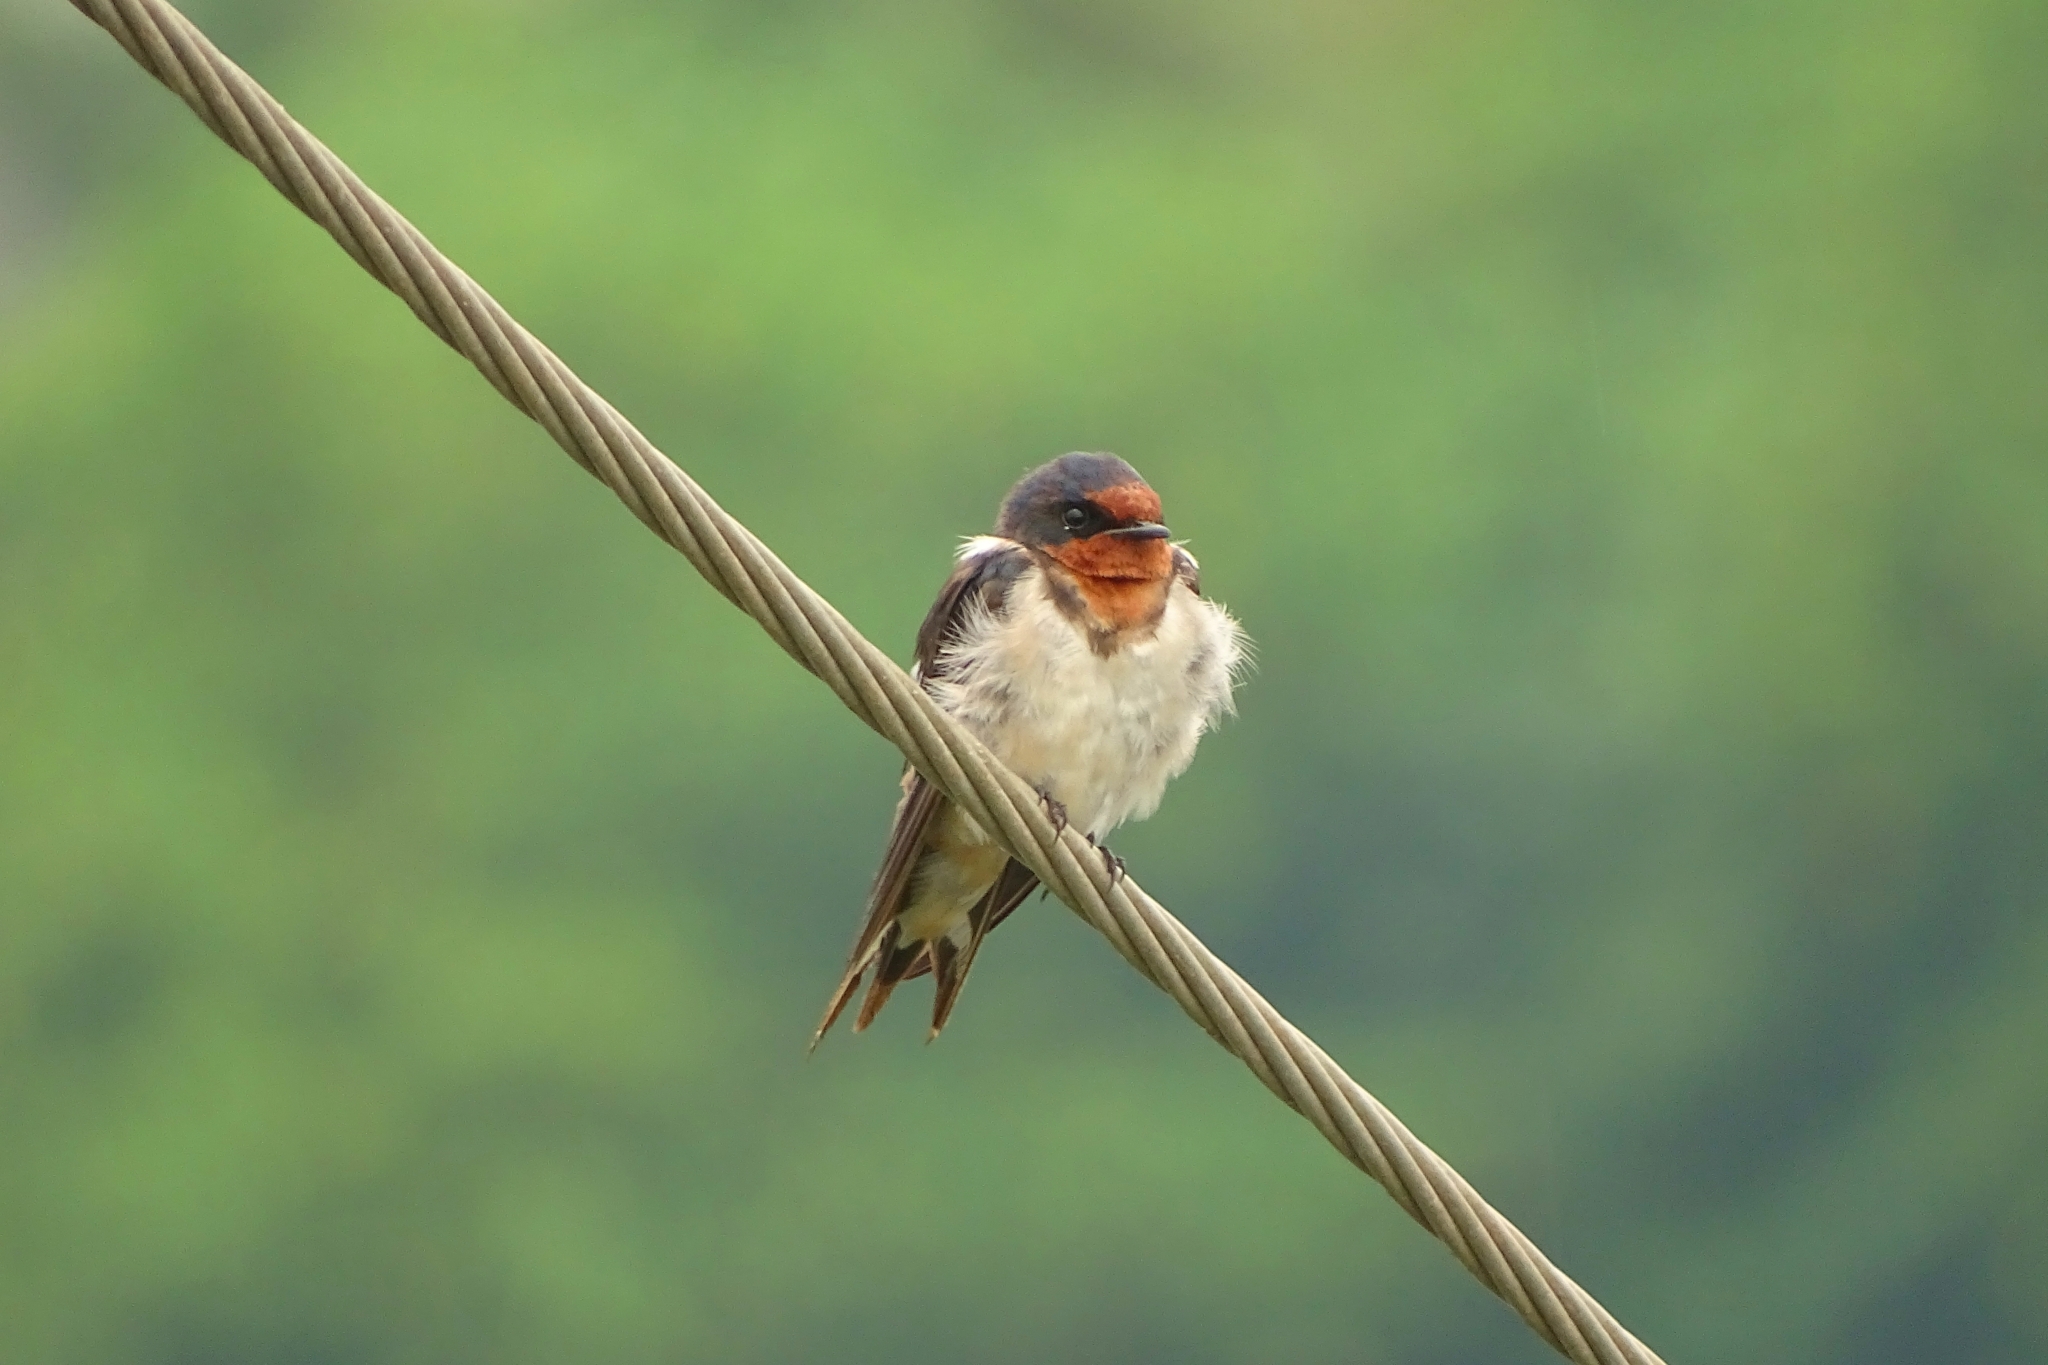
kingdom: Animalia
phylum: Chordata
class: Aves
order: Passeriformes
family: Hirundinidae
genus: Hirundo
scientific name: Hirundo rustica
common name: Barn swallow
